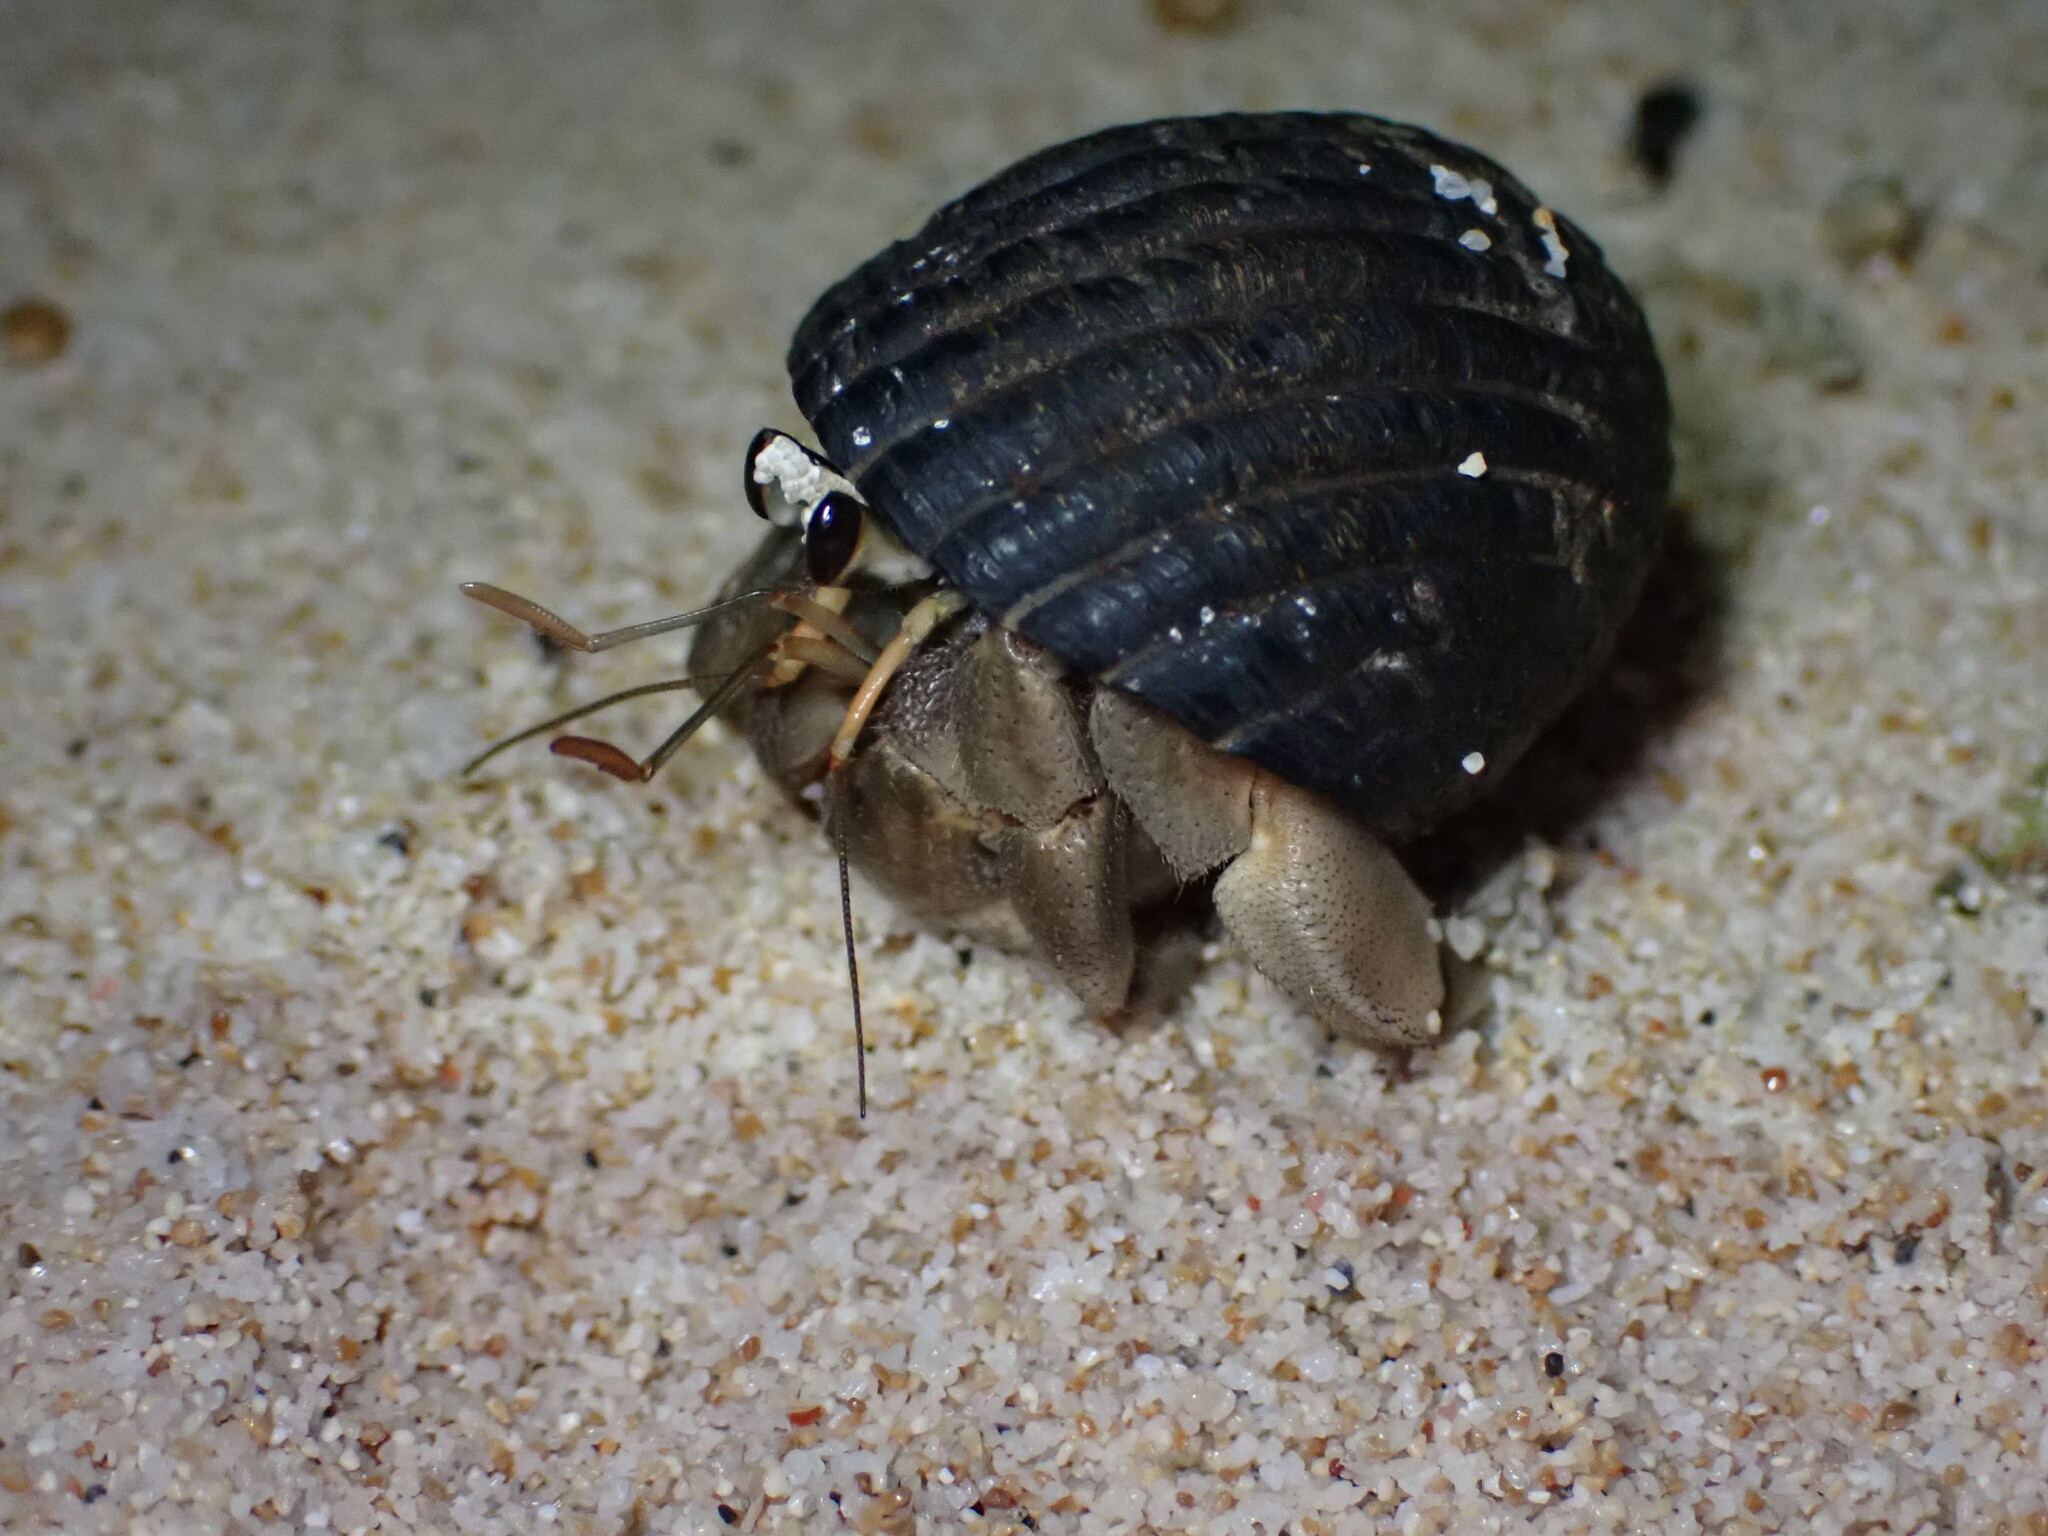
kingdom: Animalia
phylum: Arthropoda
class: Malacostraca
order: Decapoda
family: Coenobitidae
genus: Coenobita
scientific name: Coenobita rugosus
